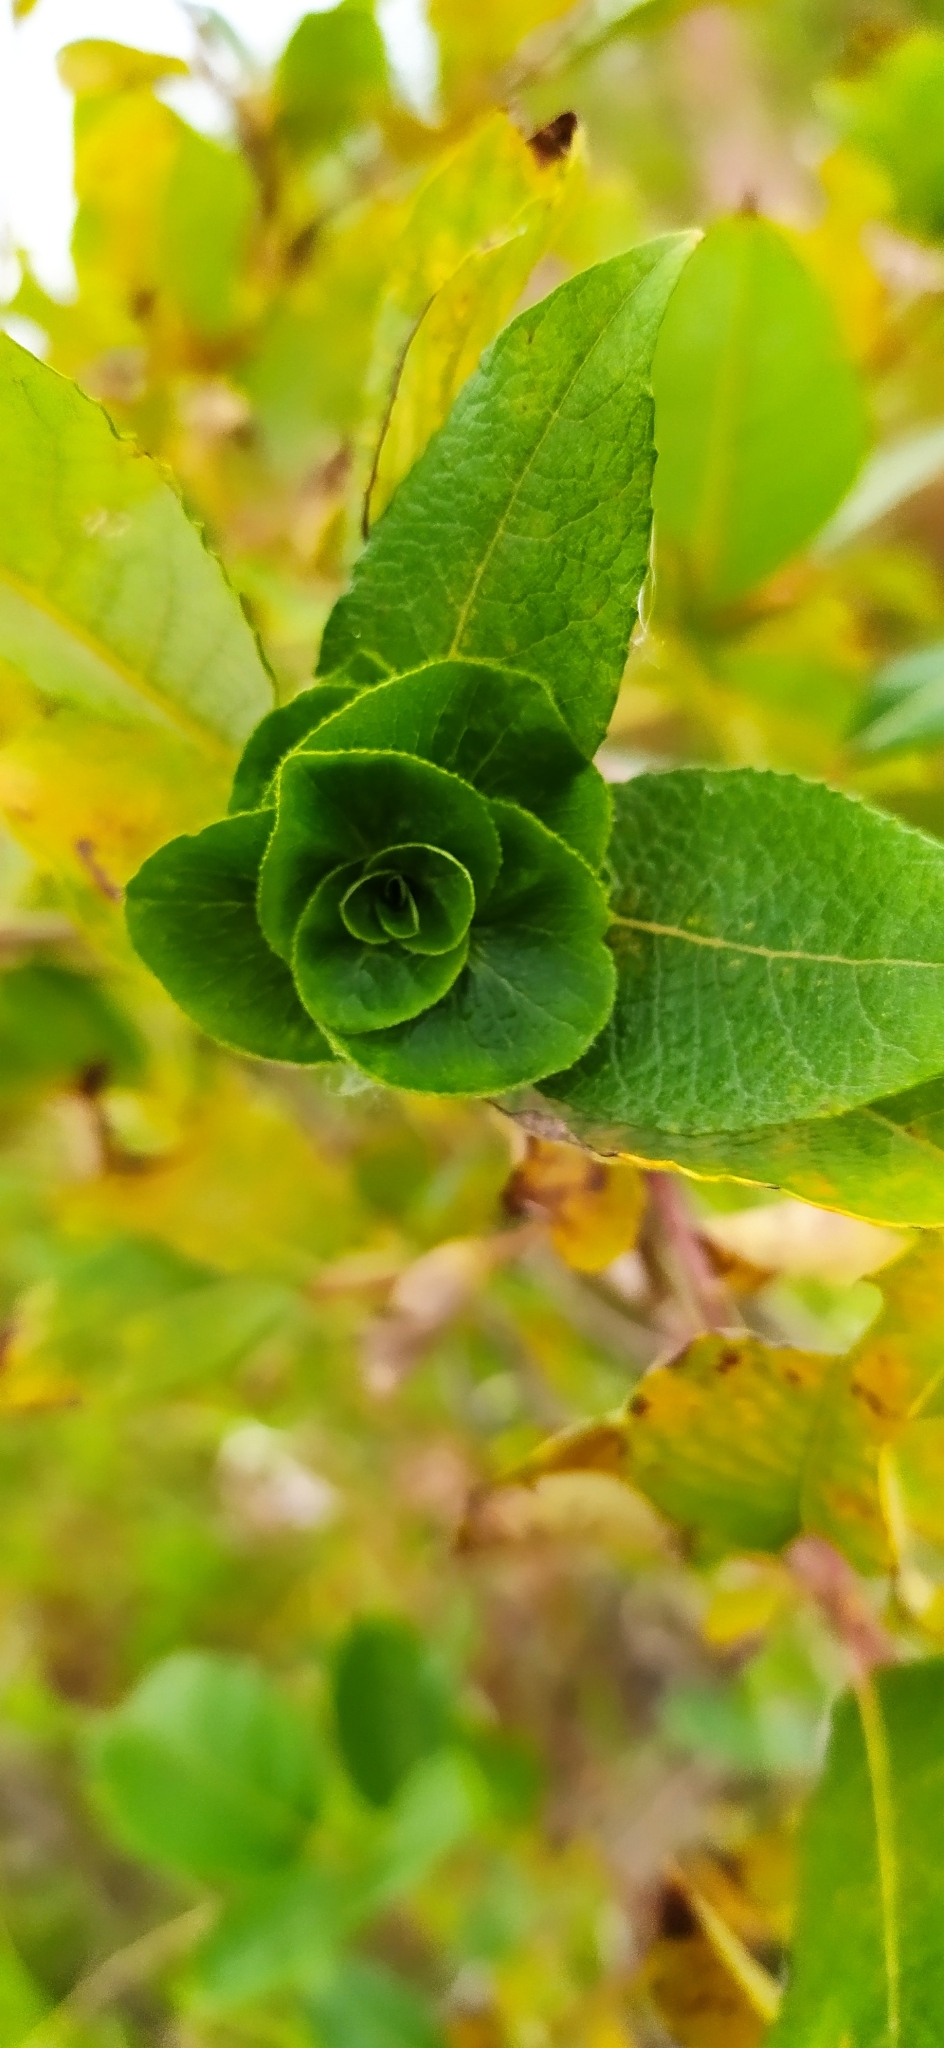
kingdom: Animalia
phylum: Arthropoda
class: Insecta
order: Diptera
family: Cecidomyiidae
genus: Rabdophaga
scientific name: Rabdophaga rosaria
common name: Willow rose gall midge
